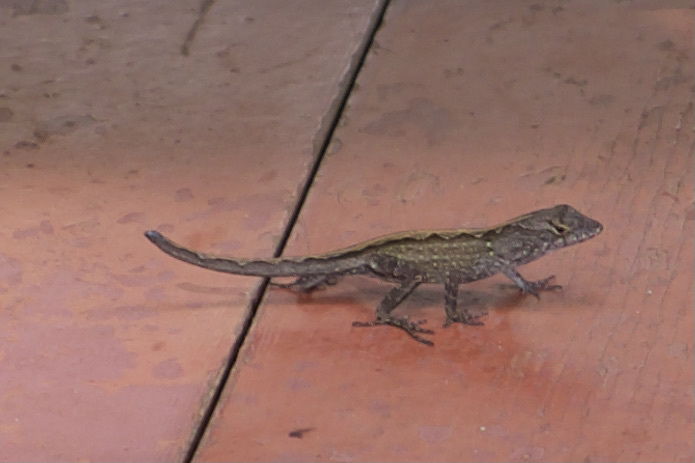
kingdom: Animalia
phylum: Chordata
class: Squamata
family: Dactyloidae
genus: Anolis
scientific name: Anolis sagrei
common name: Brown anole
